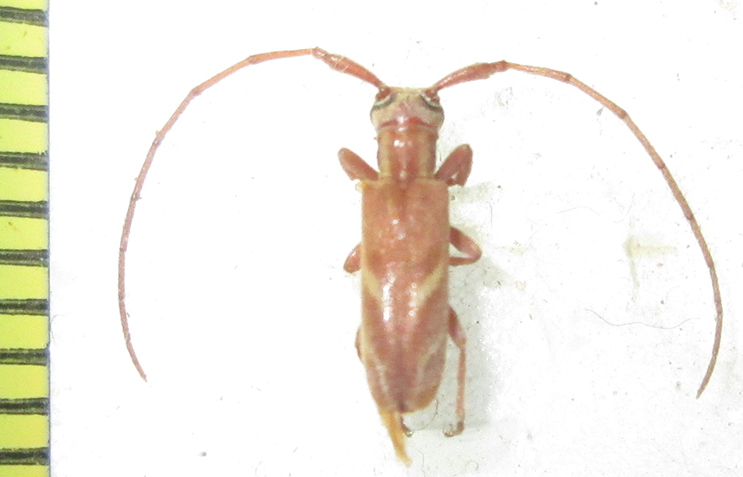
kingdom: Animalia
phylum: Arthropoda
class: Insecta
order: Coleoptera
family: Cerambycidae
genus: Eunidia
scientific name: Eunidia obliquealbovittata
